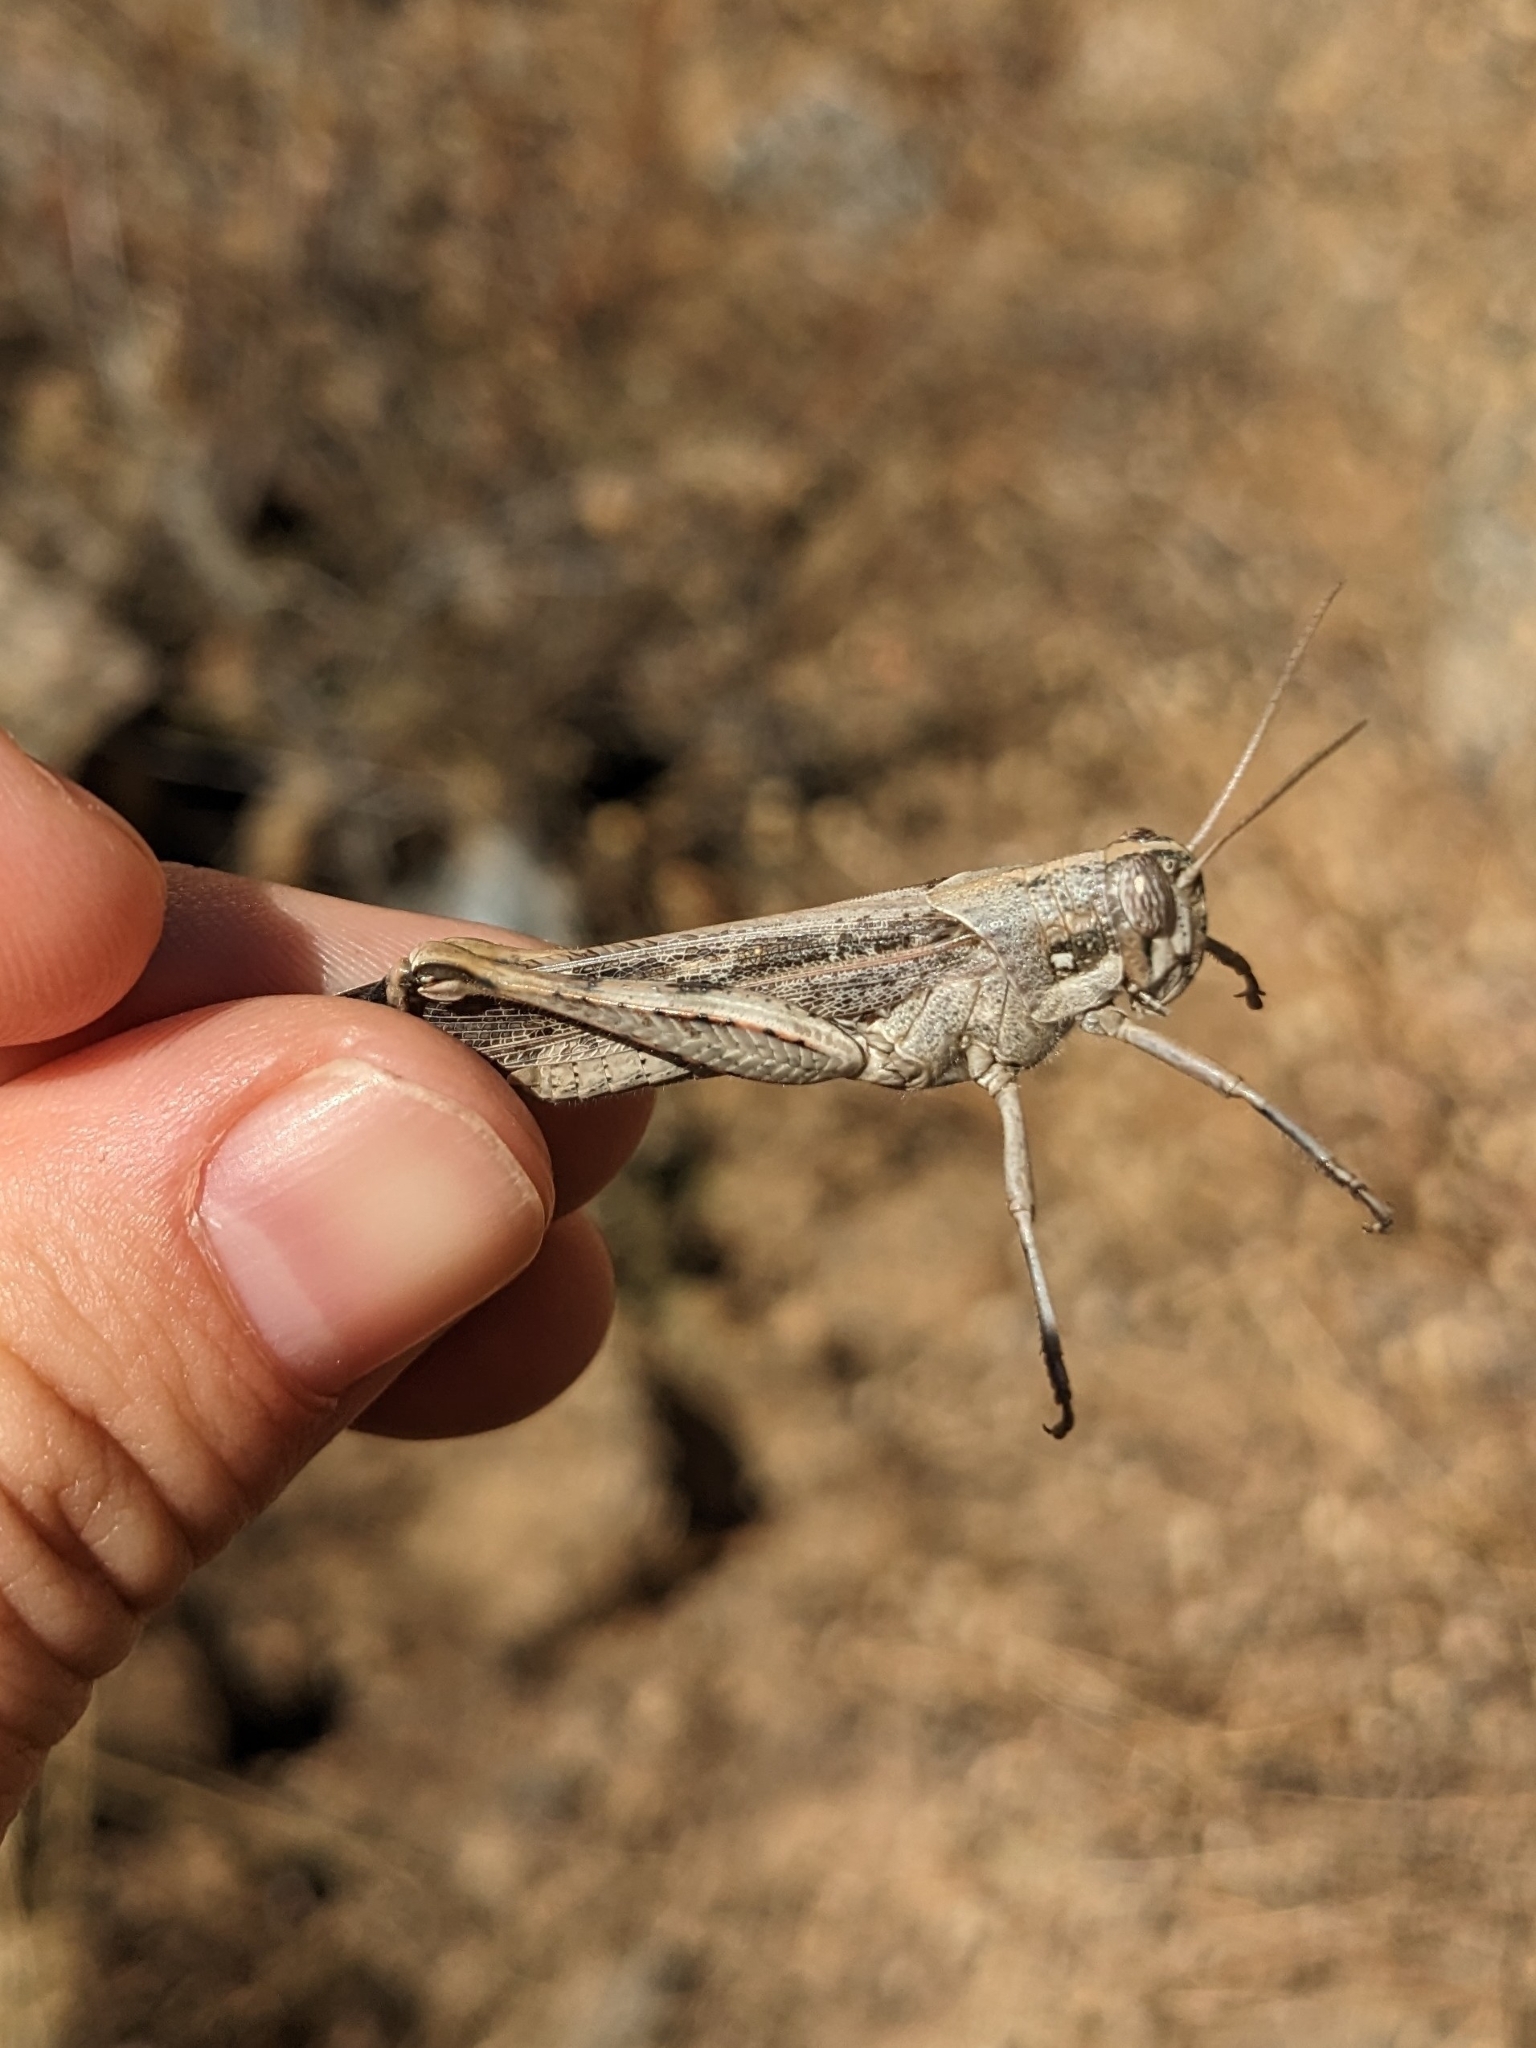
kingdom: Animalia
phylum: Arthropoda
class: Insecta
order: Orthoptera
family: Acrididae
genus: Schistocerca
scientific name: Schistocerca nitens
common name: Vagrant grasshopper
